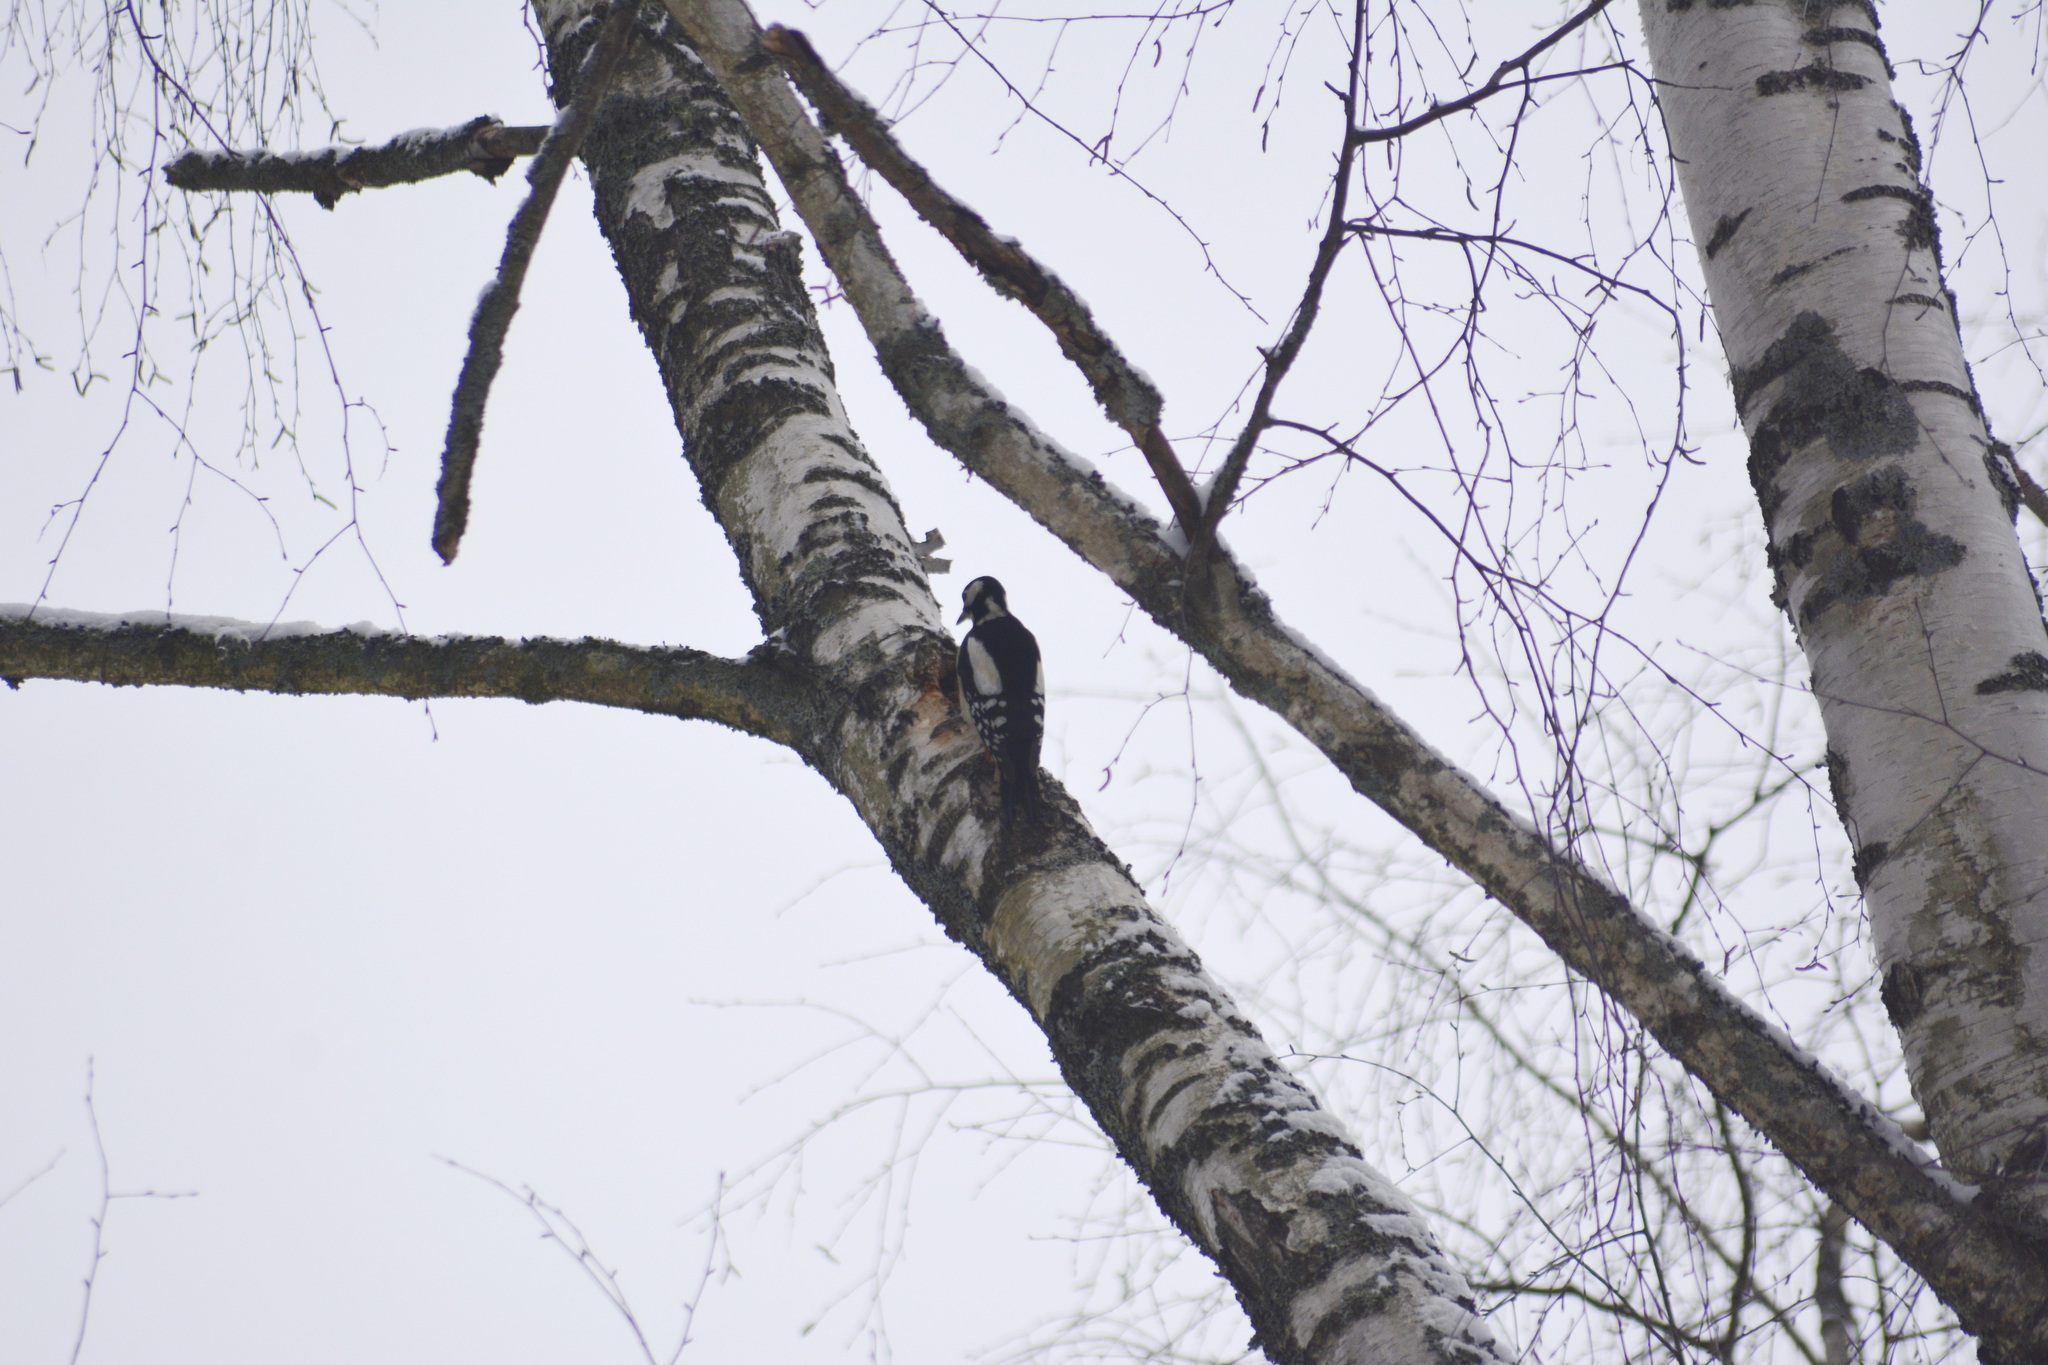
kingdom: Animalia
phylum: Chordata
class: Aves
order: Piciformes
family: Picidae
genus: Dendrocopos
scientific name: Dendrocopos major
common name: Great spotted woodpecker
